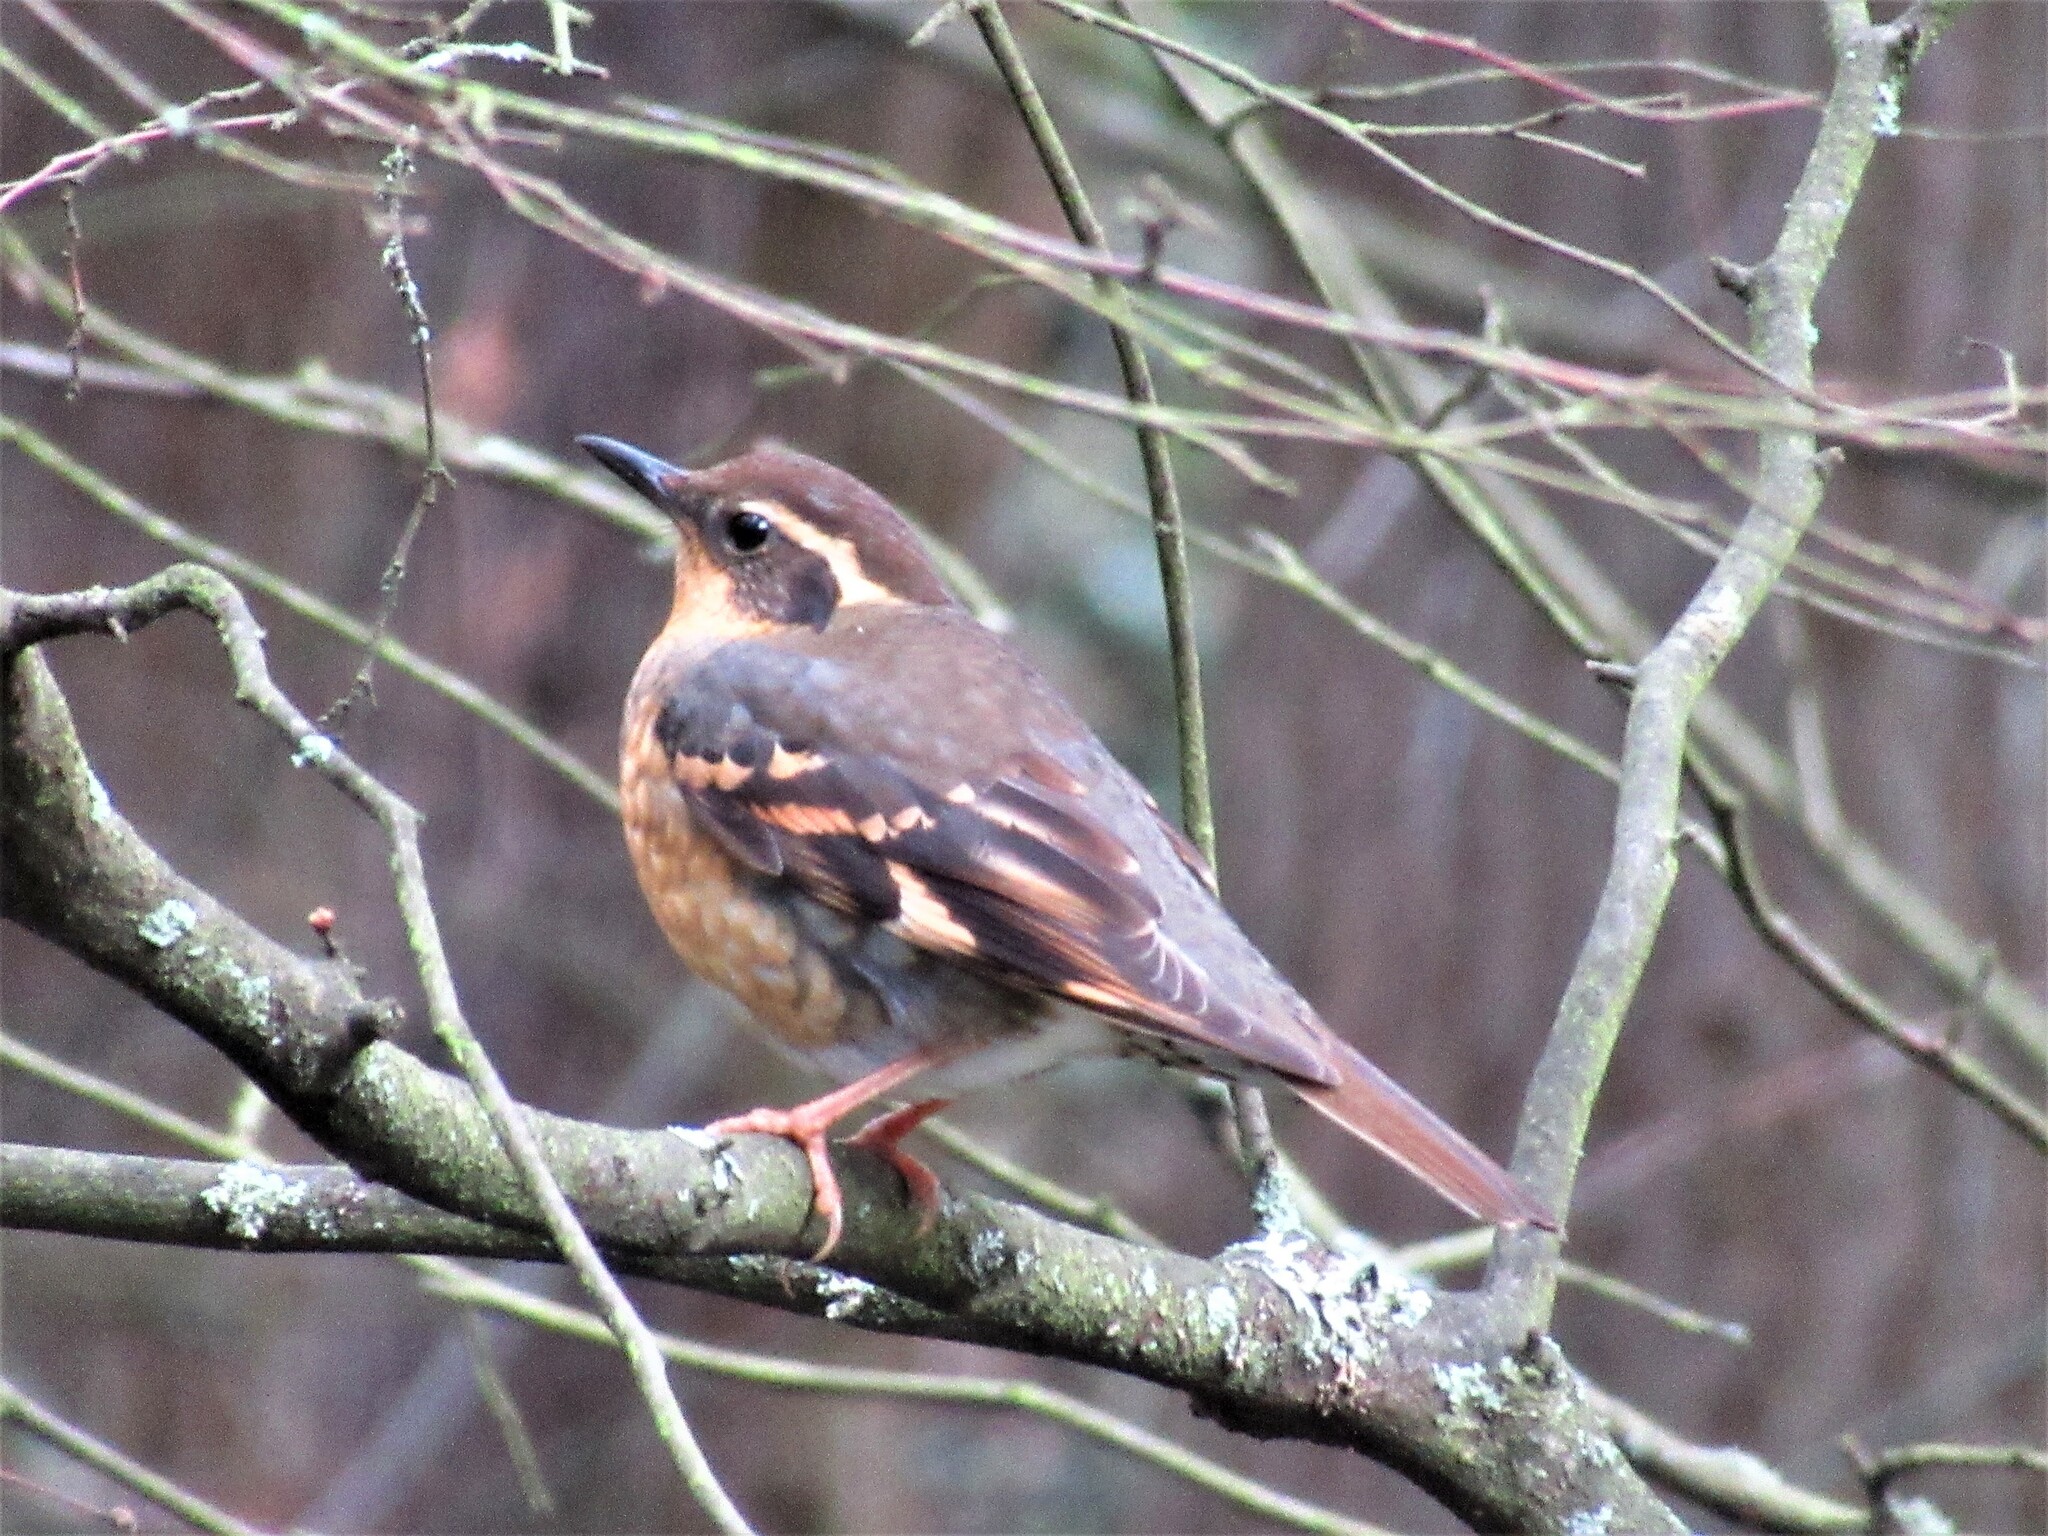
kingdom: Animalia
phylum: Chordata
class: Aves
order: Passeriformes
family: Turdidae
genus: Ixoreus
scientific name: Ixoreus naevius
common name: Varied thrush
